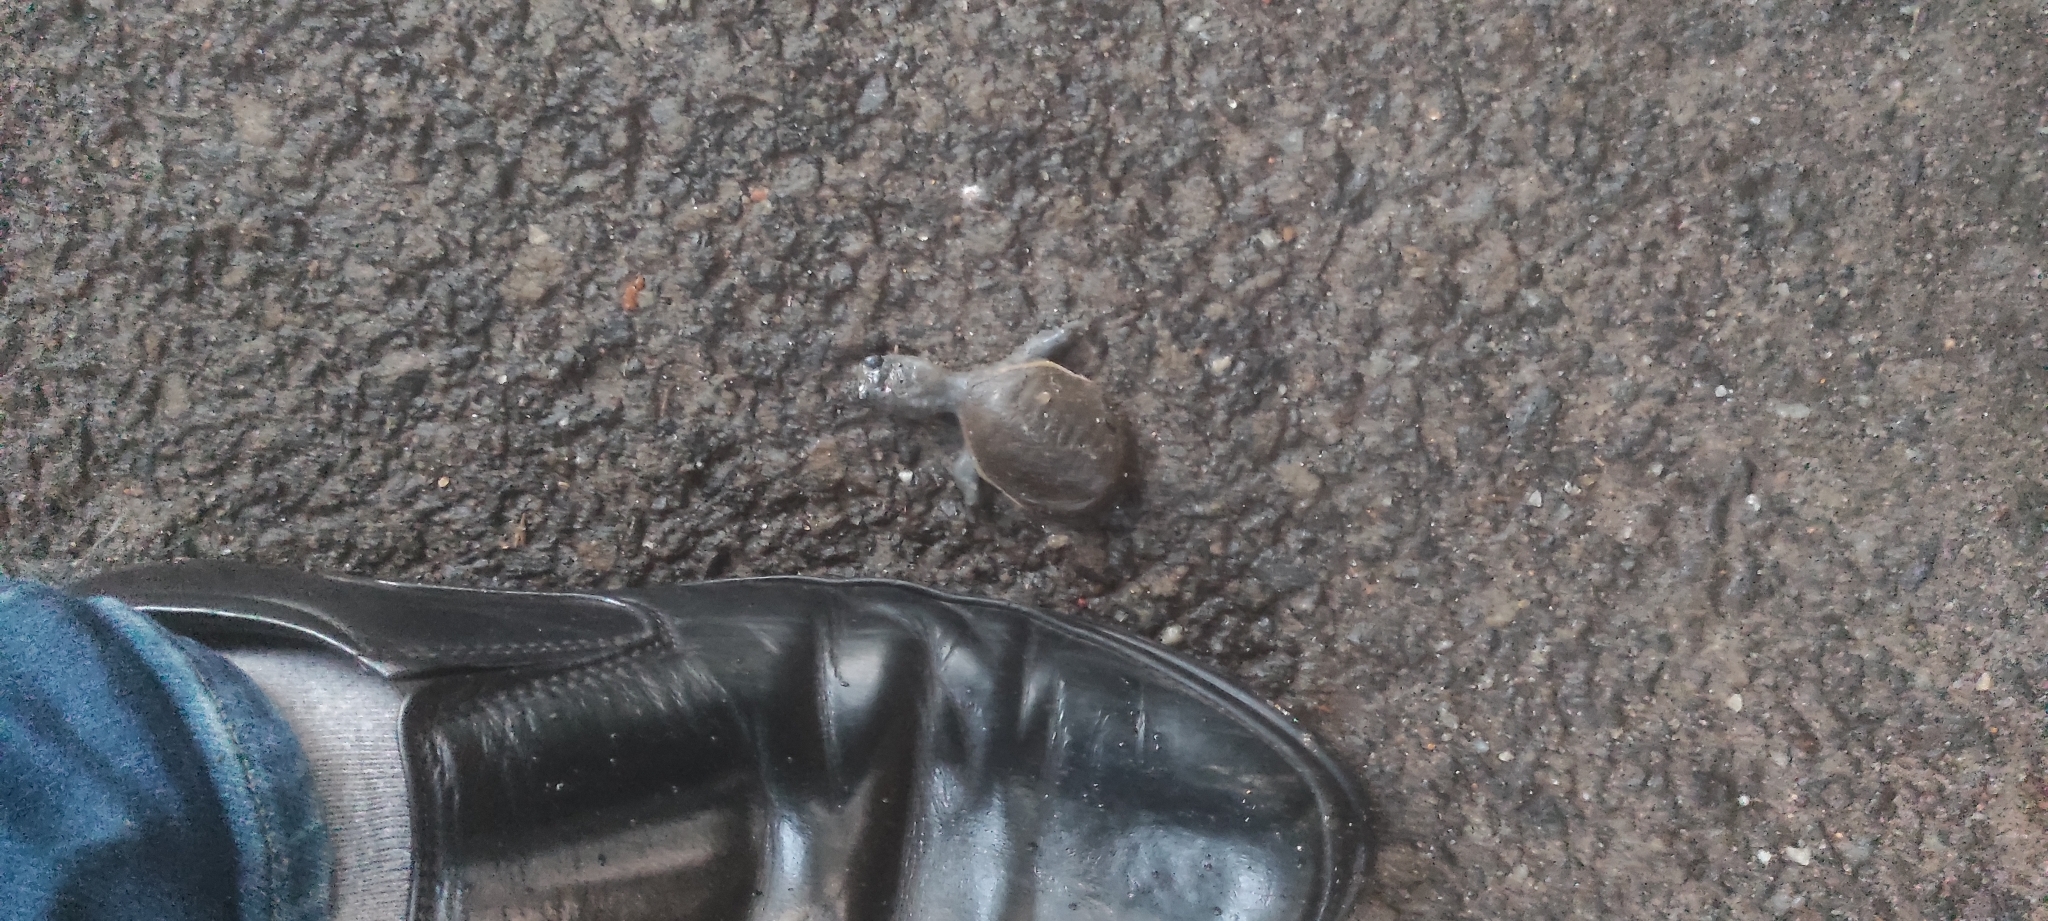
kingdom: Animalia
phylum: Chordata
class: Testudines
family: Trionychidae
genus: Lissemys
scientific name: Lissemys punctata
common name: Indian flap-shelled turtle
